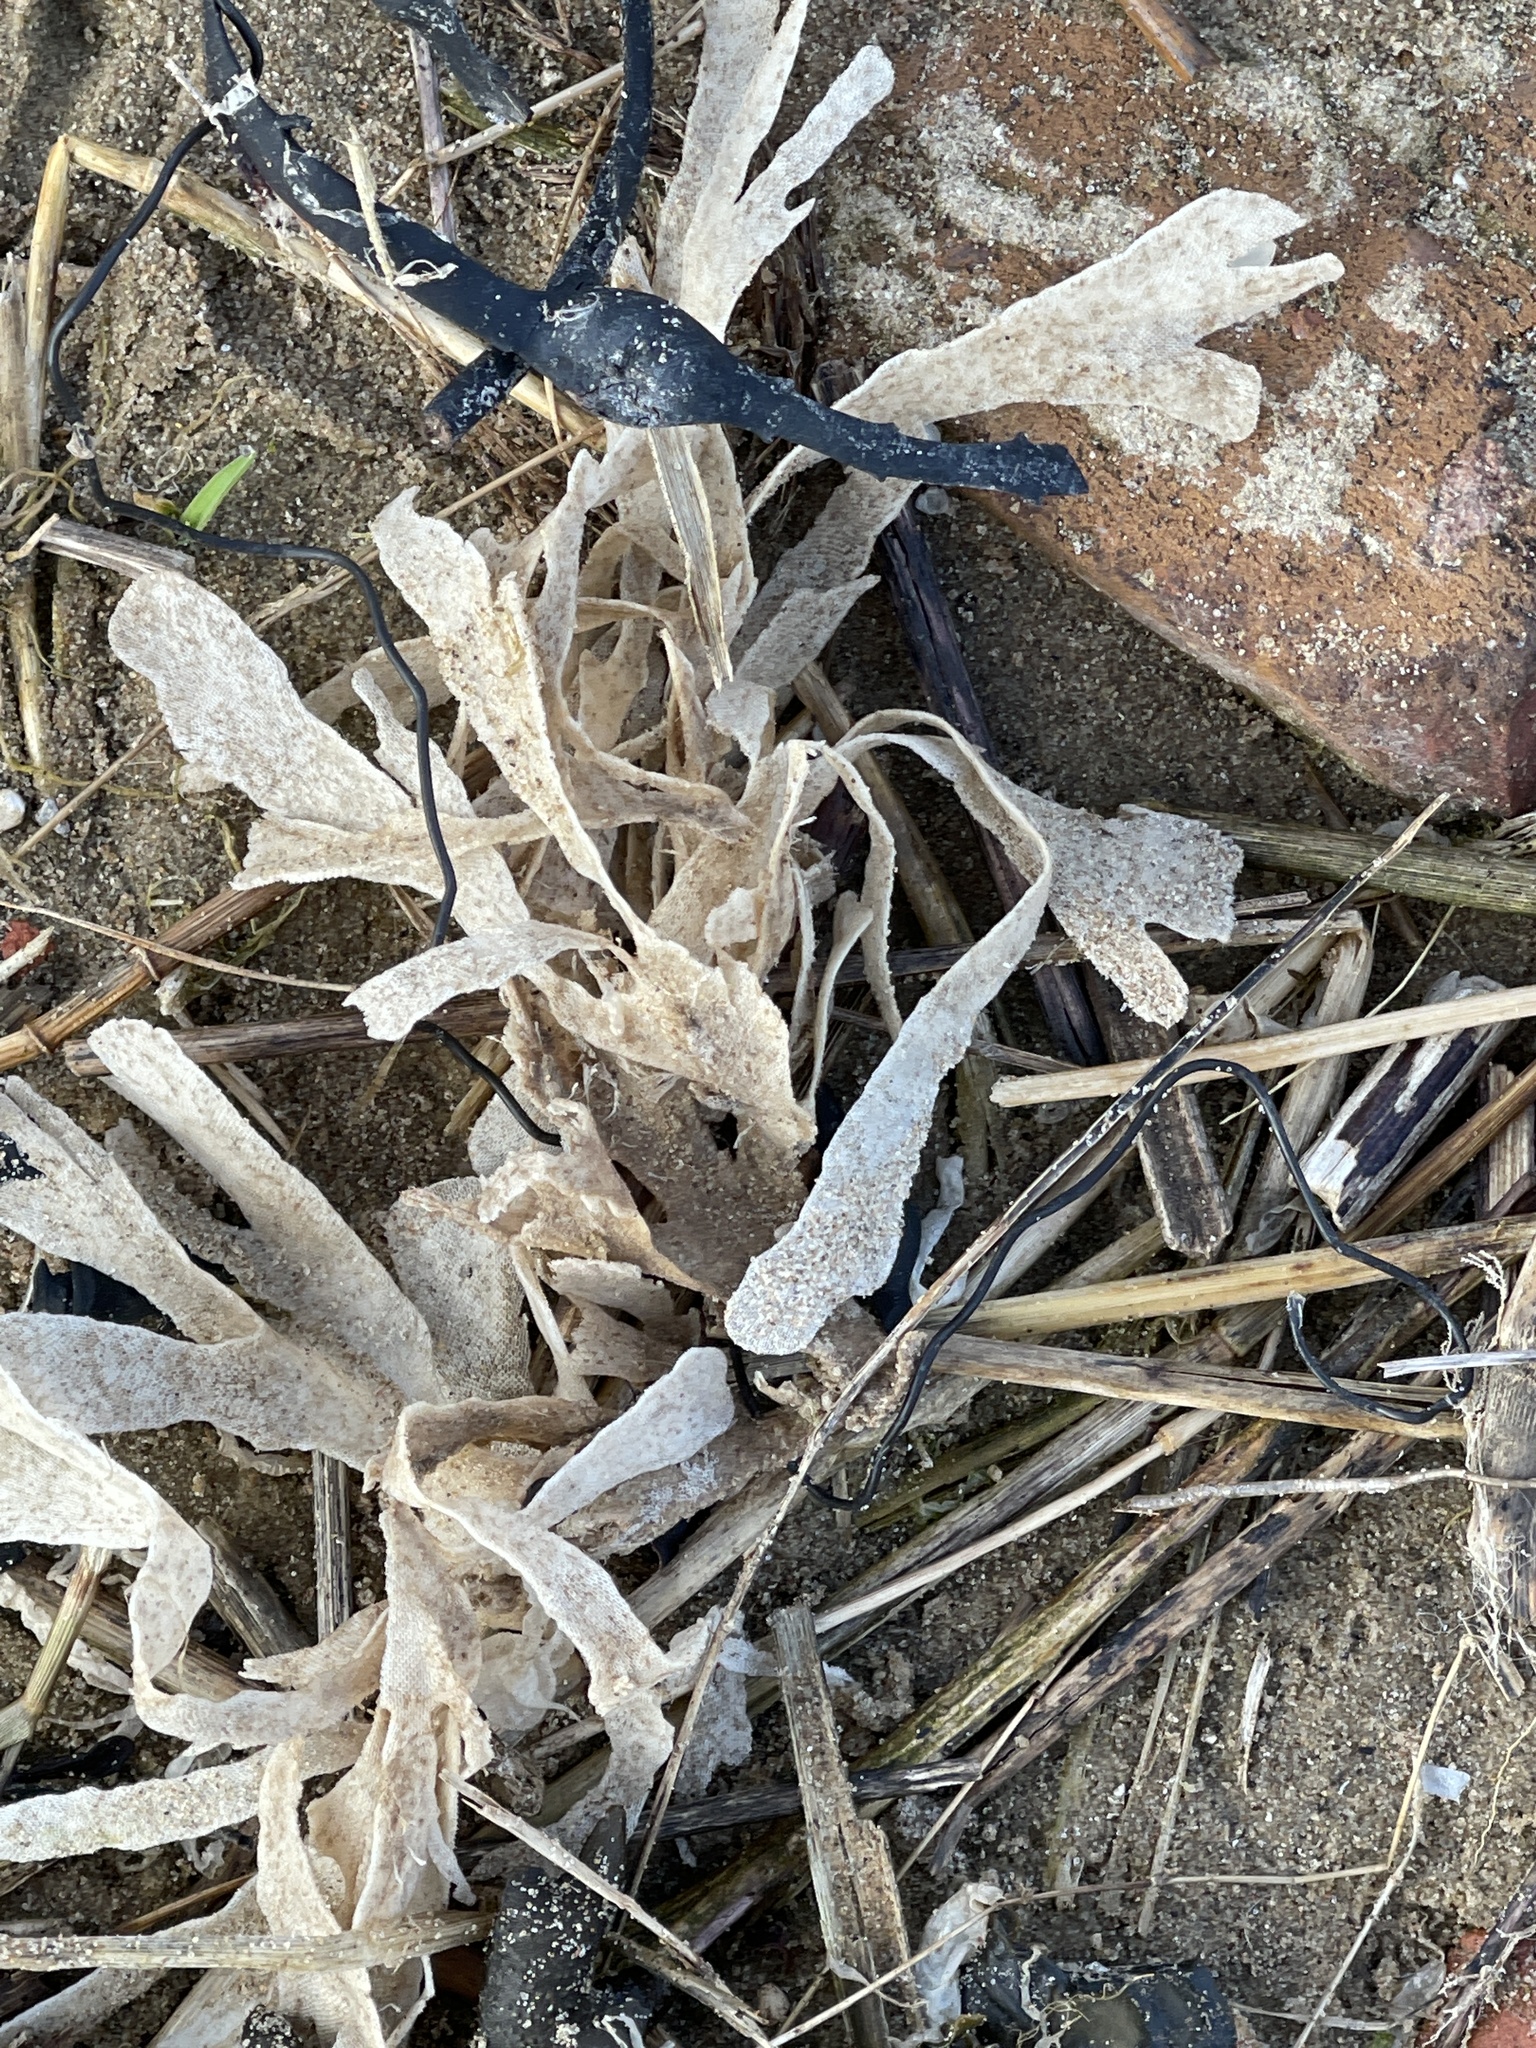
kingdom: Animalia
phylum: Bryozoa
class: Gymnolaemata
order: Cheilostomatida
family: Flustridae
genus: Flustra
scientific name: Flustra foliacea
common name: Hornwrack
